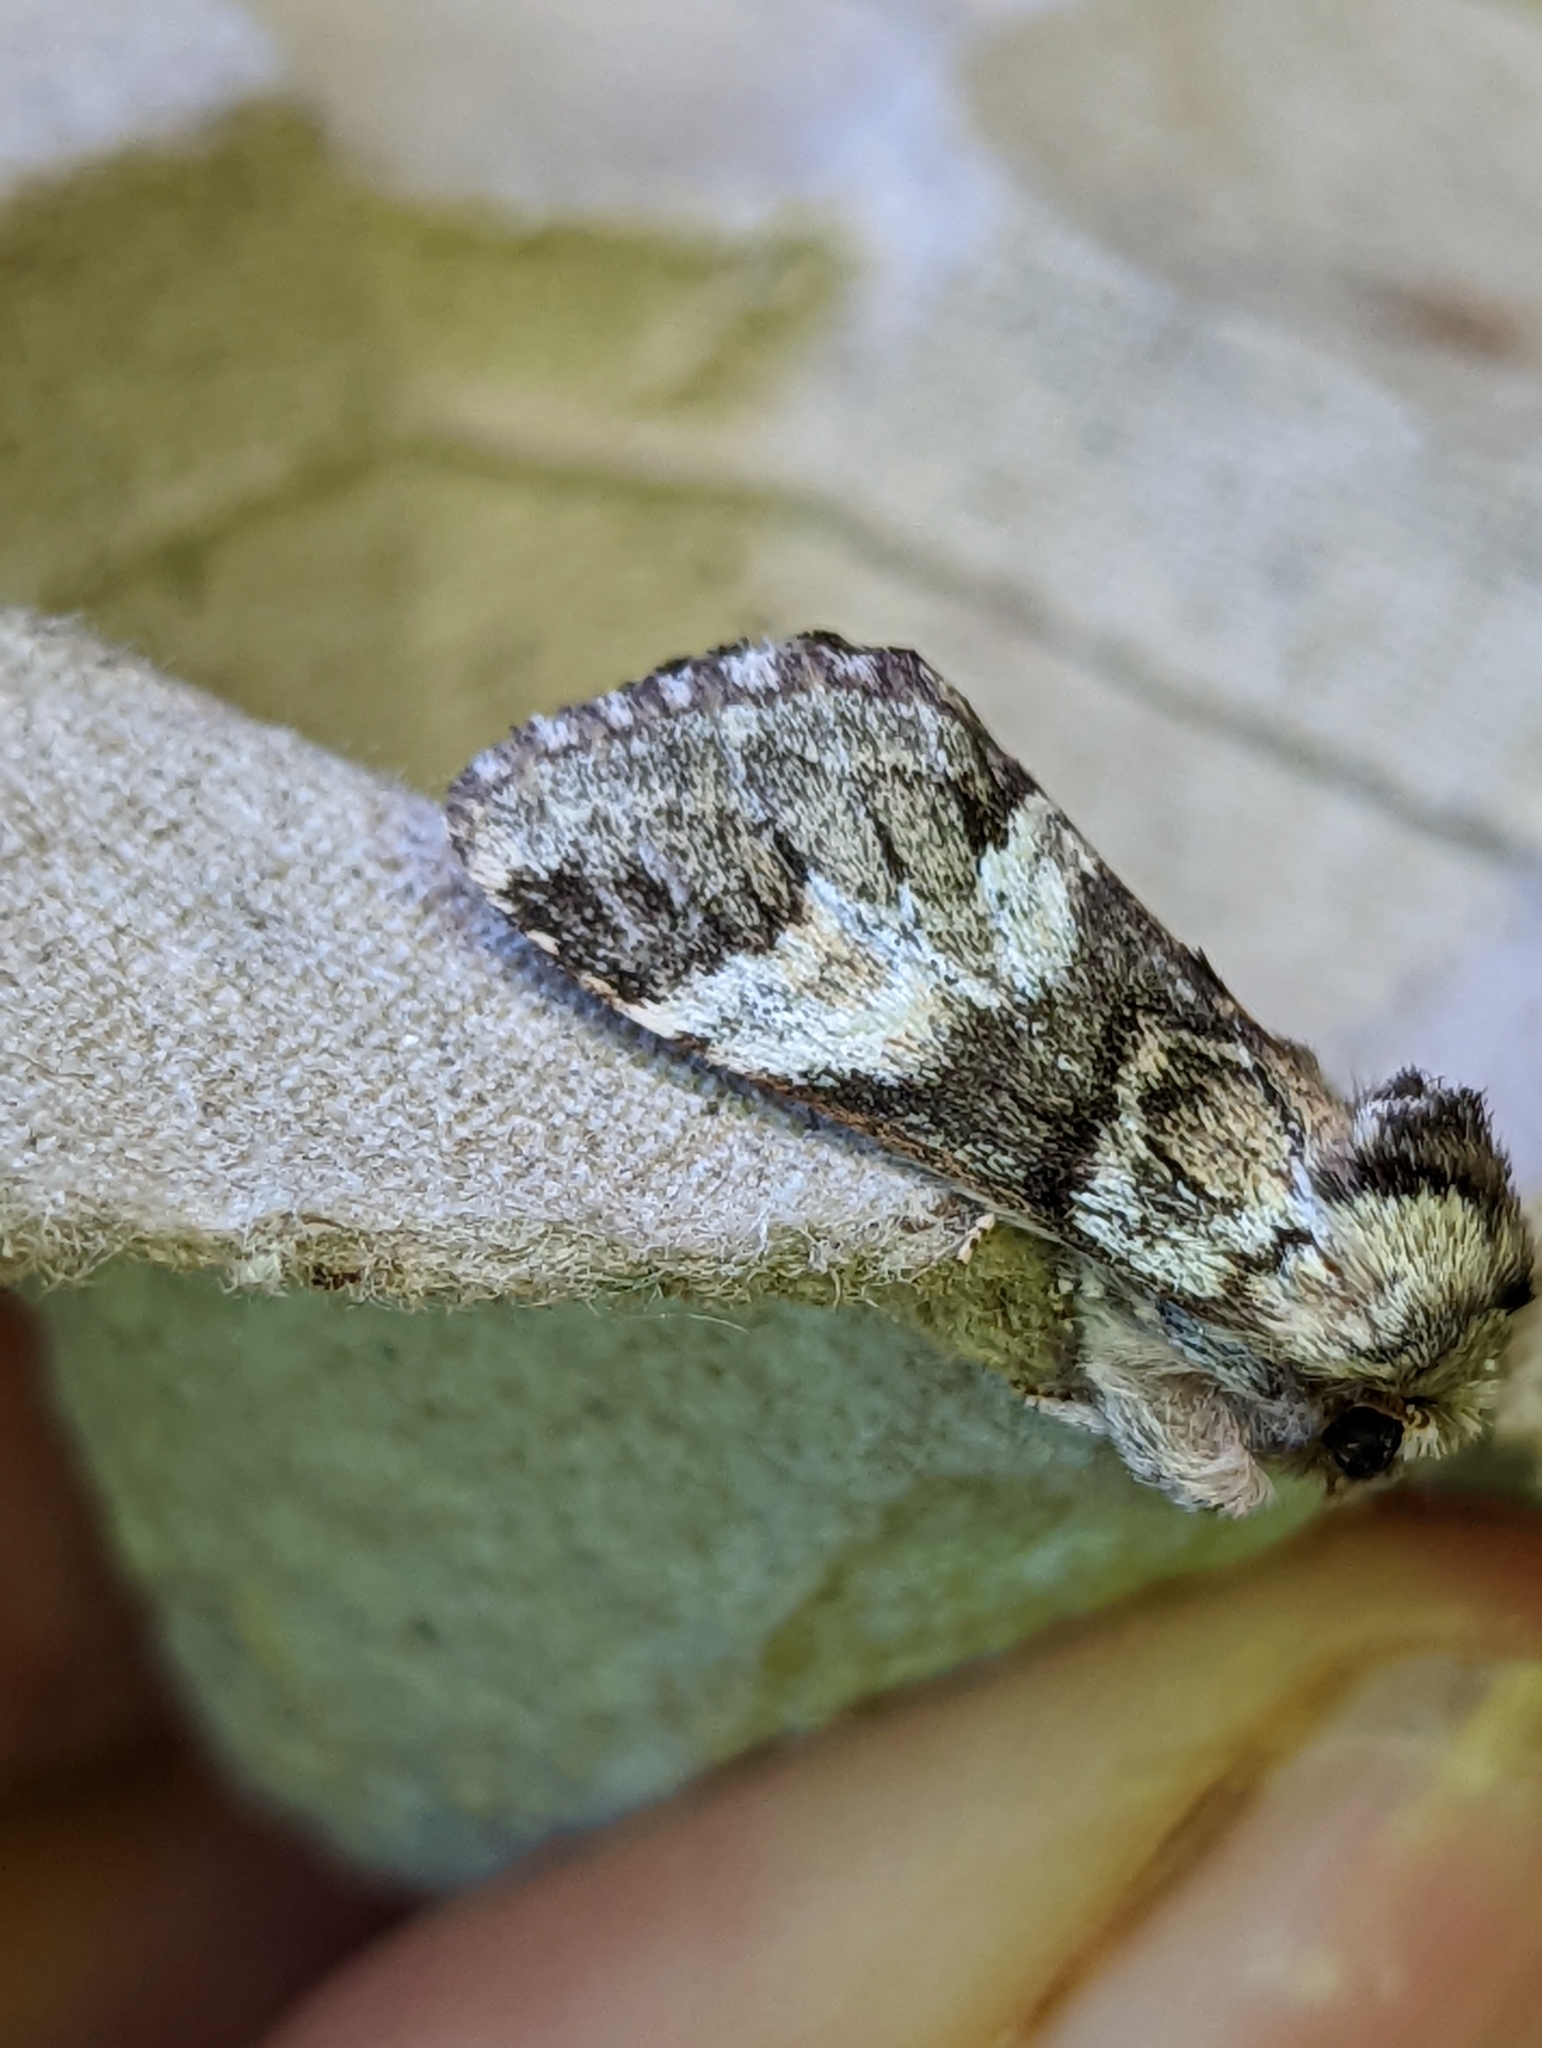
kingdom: Animalia
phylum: Arthropoda
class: Insecta
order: Lepidoptera
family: Notodontidae
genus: Drymonia
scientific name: Drymonia dodonaea
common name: Marbled brown
